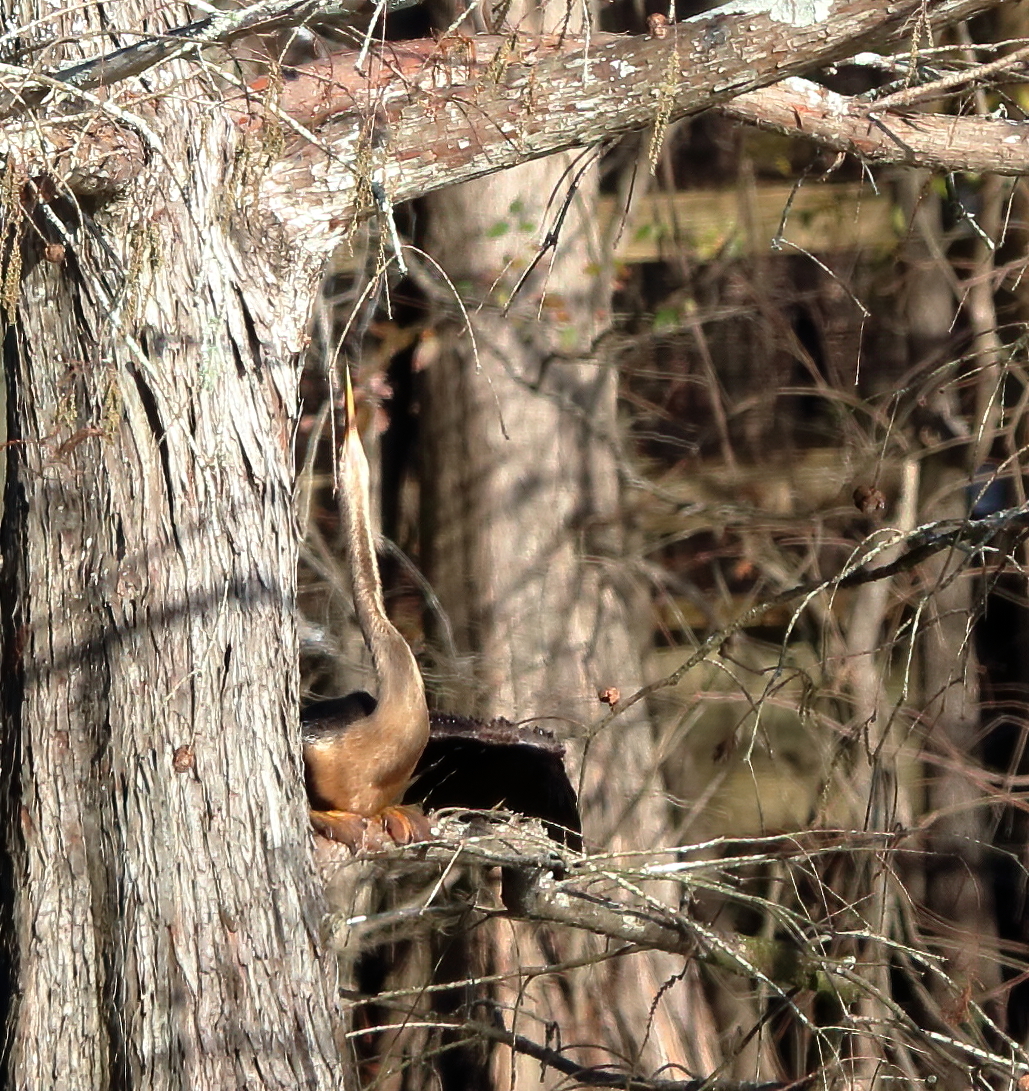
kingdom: Animalia
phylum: Chordata
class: Aves
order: Suliformes
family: Anhingidae
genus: Anhinga
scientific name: Anhinga anhinga
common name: Anhinga
